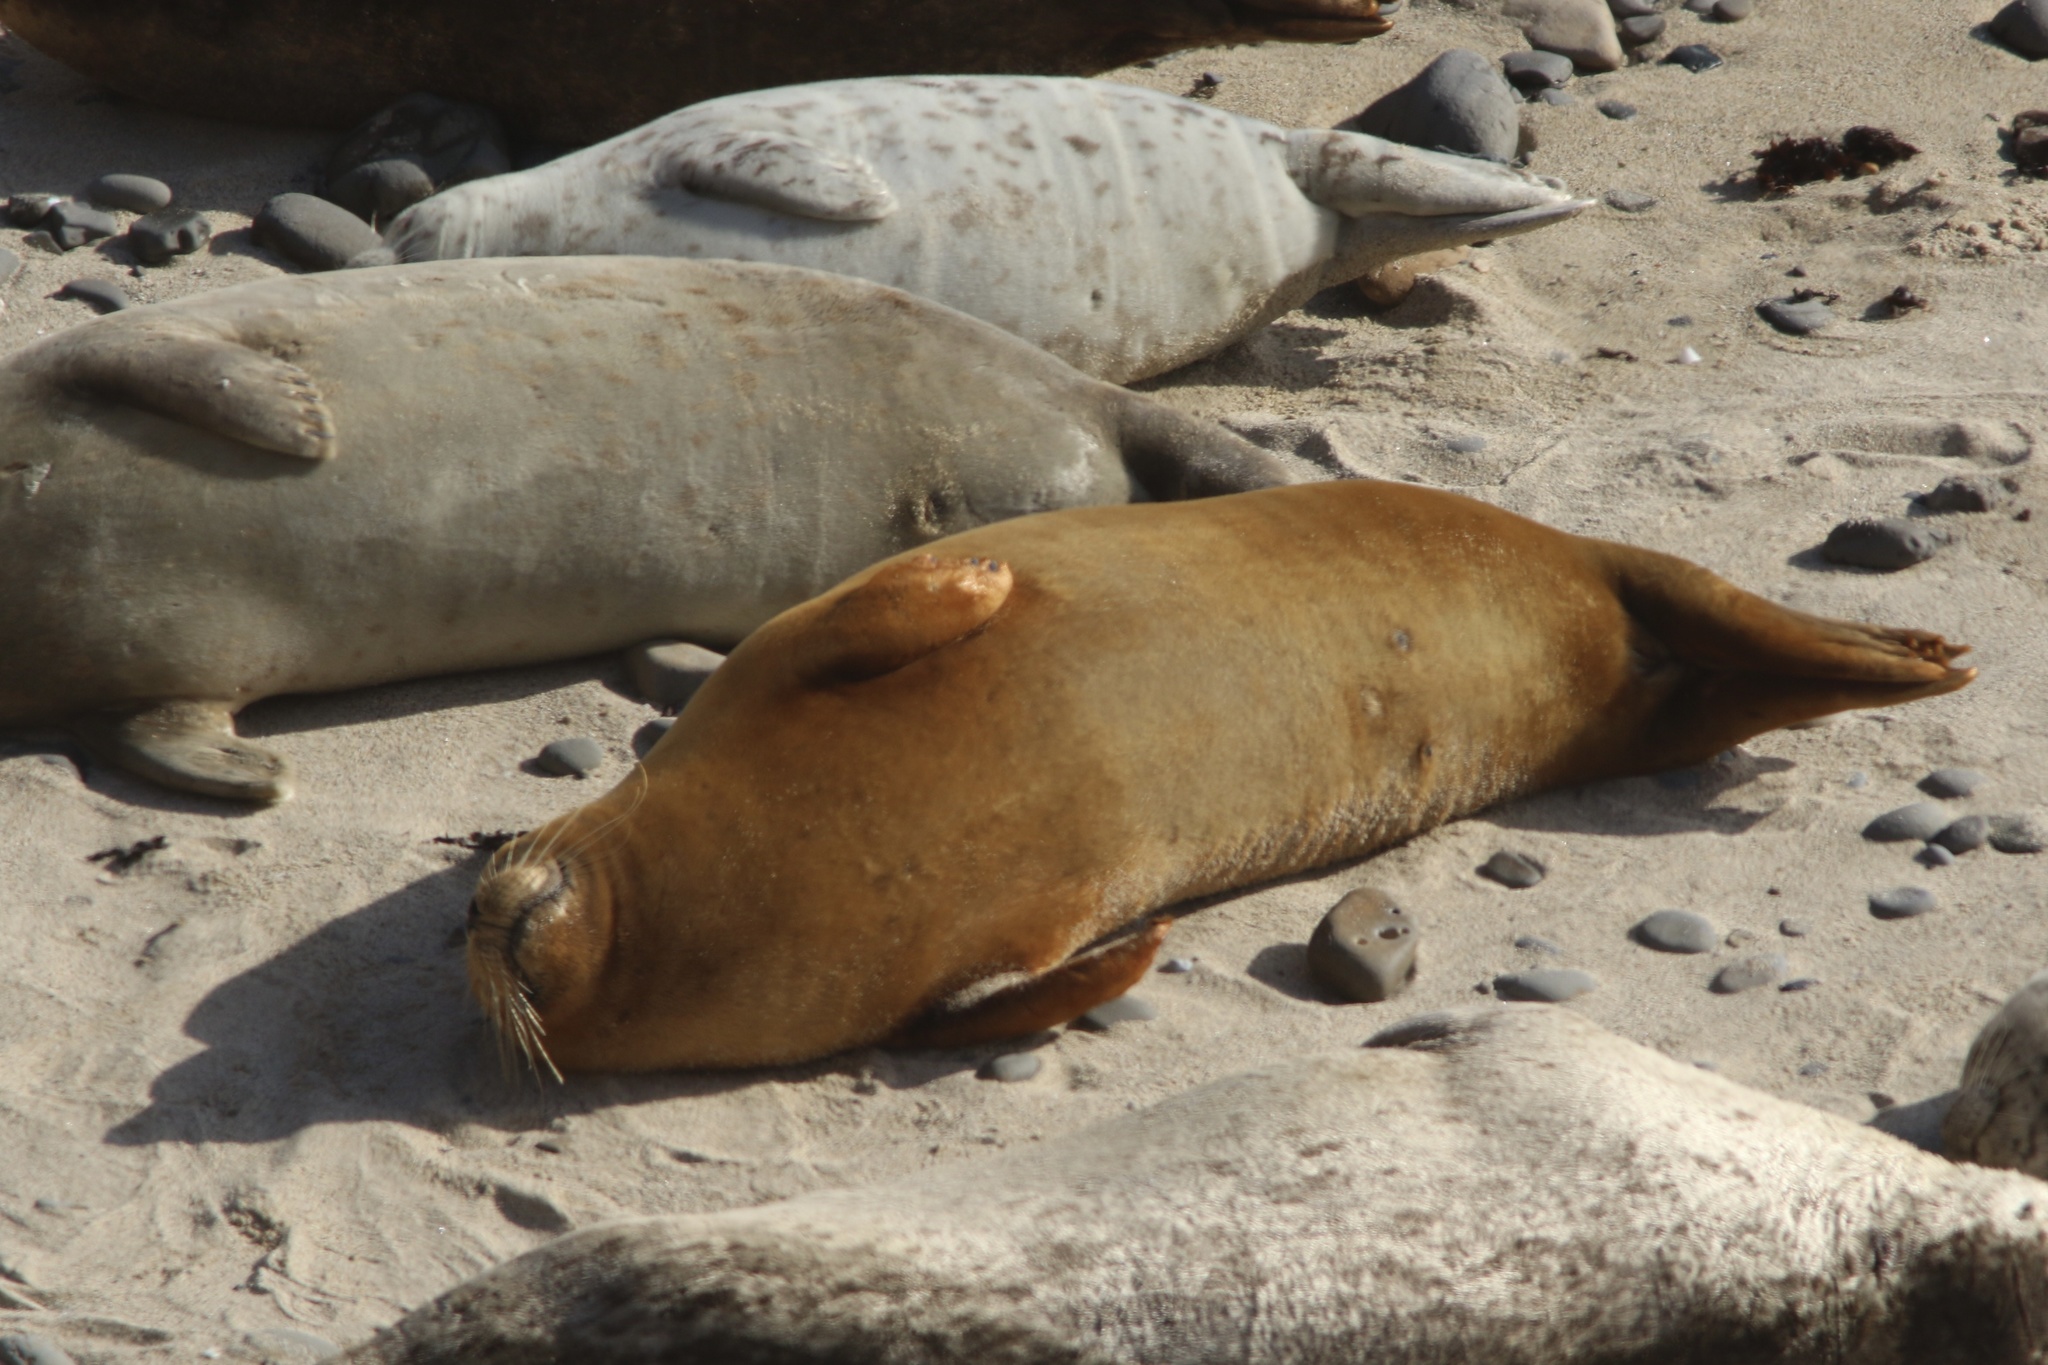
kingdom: Animalia
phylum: Chordata
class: Mammalia
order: Carnivora
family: Phocidae
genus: Phoca
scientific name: Phoca vitulina
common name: Harbor seal
